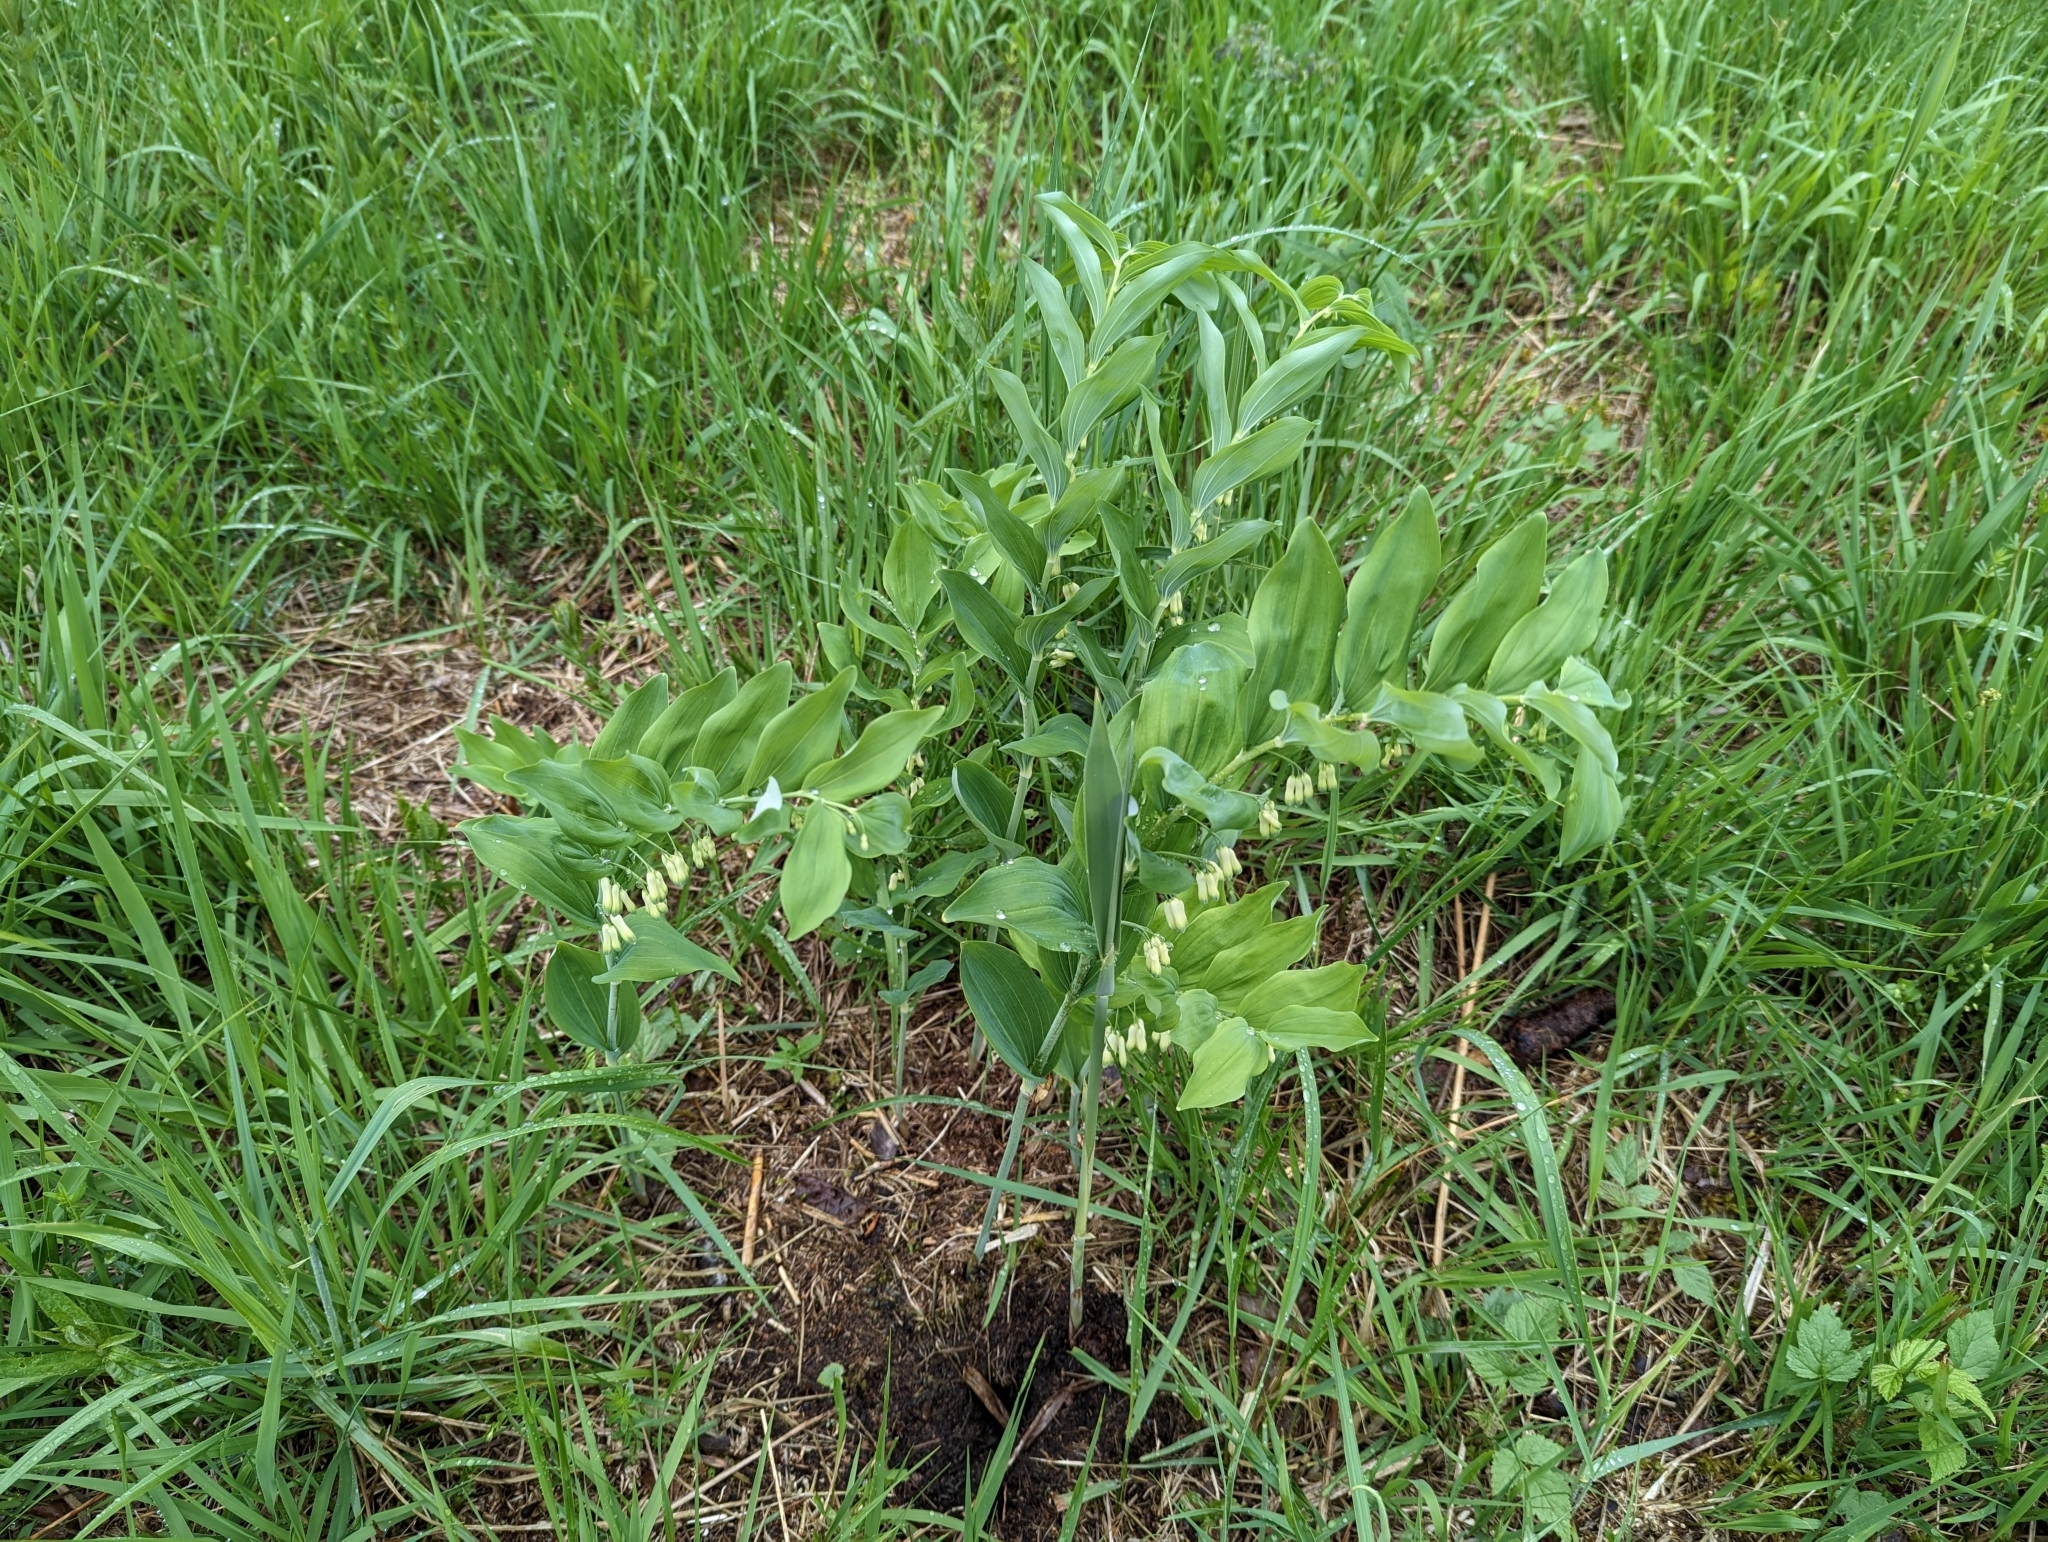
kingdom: Plantae
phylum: Tracheophyta
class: Liliopsida
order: Asparagales
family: Asparagaceae
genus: Polygonatum
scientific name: Polygonatum multiflorum
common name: Solomon's-seal
